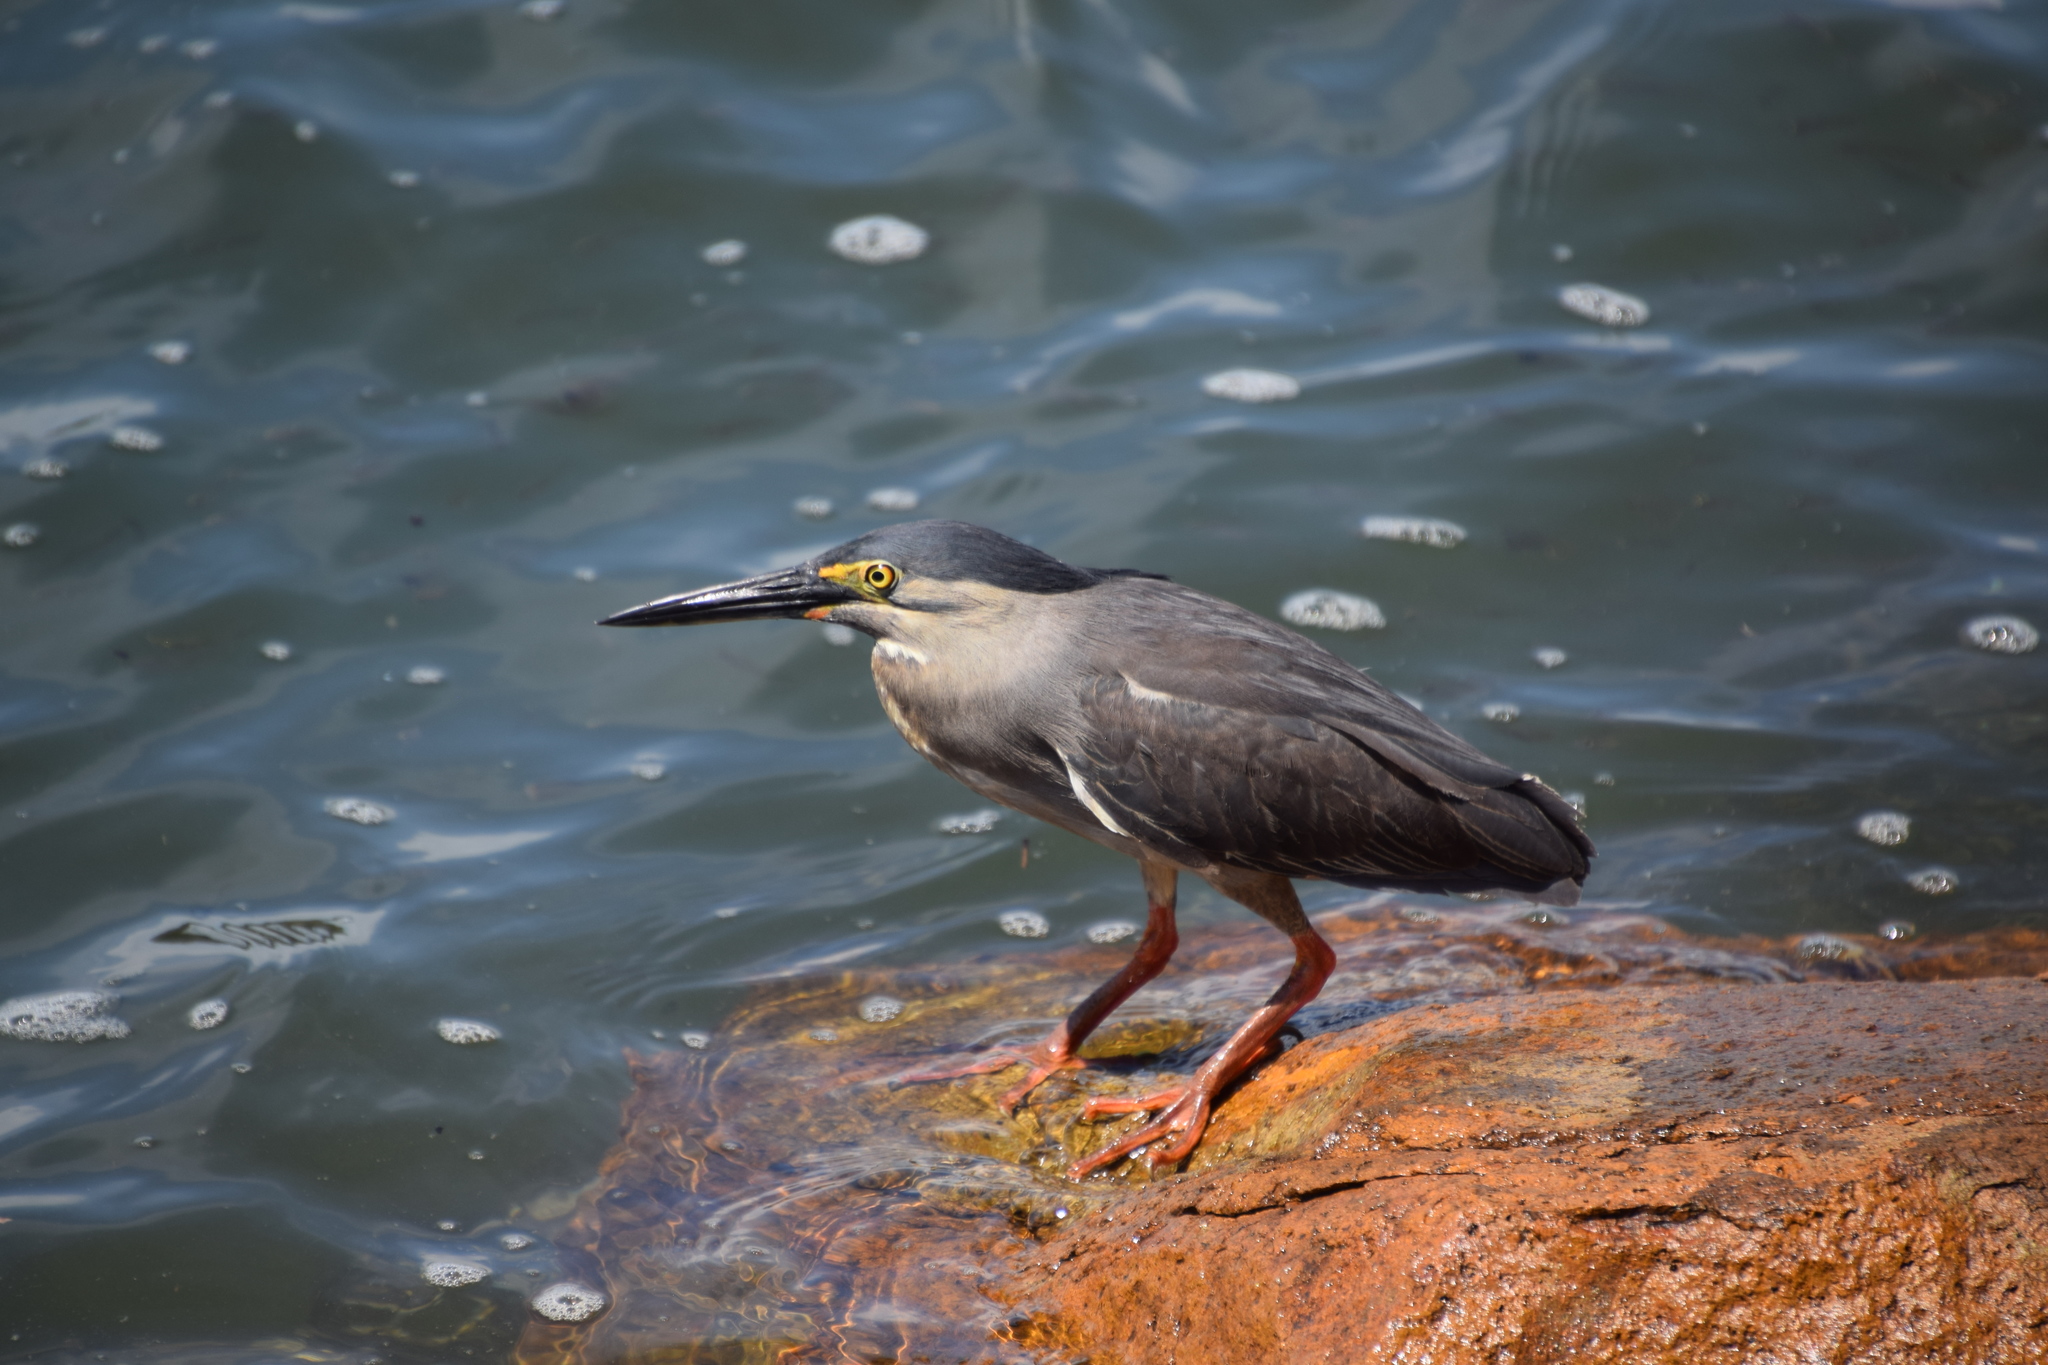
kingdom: Animalia
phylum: Chordata
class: Aves
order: Pelecaniformes
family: Ardeidae
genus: Butorides
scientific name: Butorides striata
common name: Striated heron
